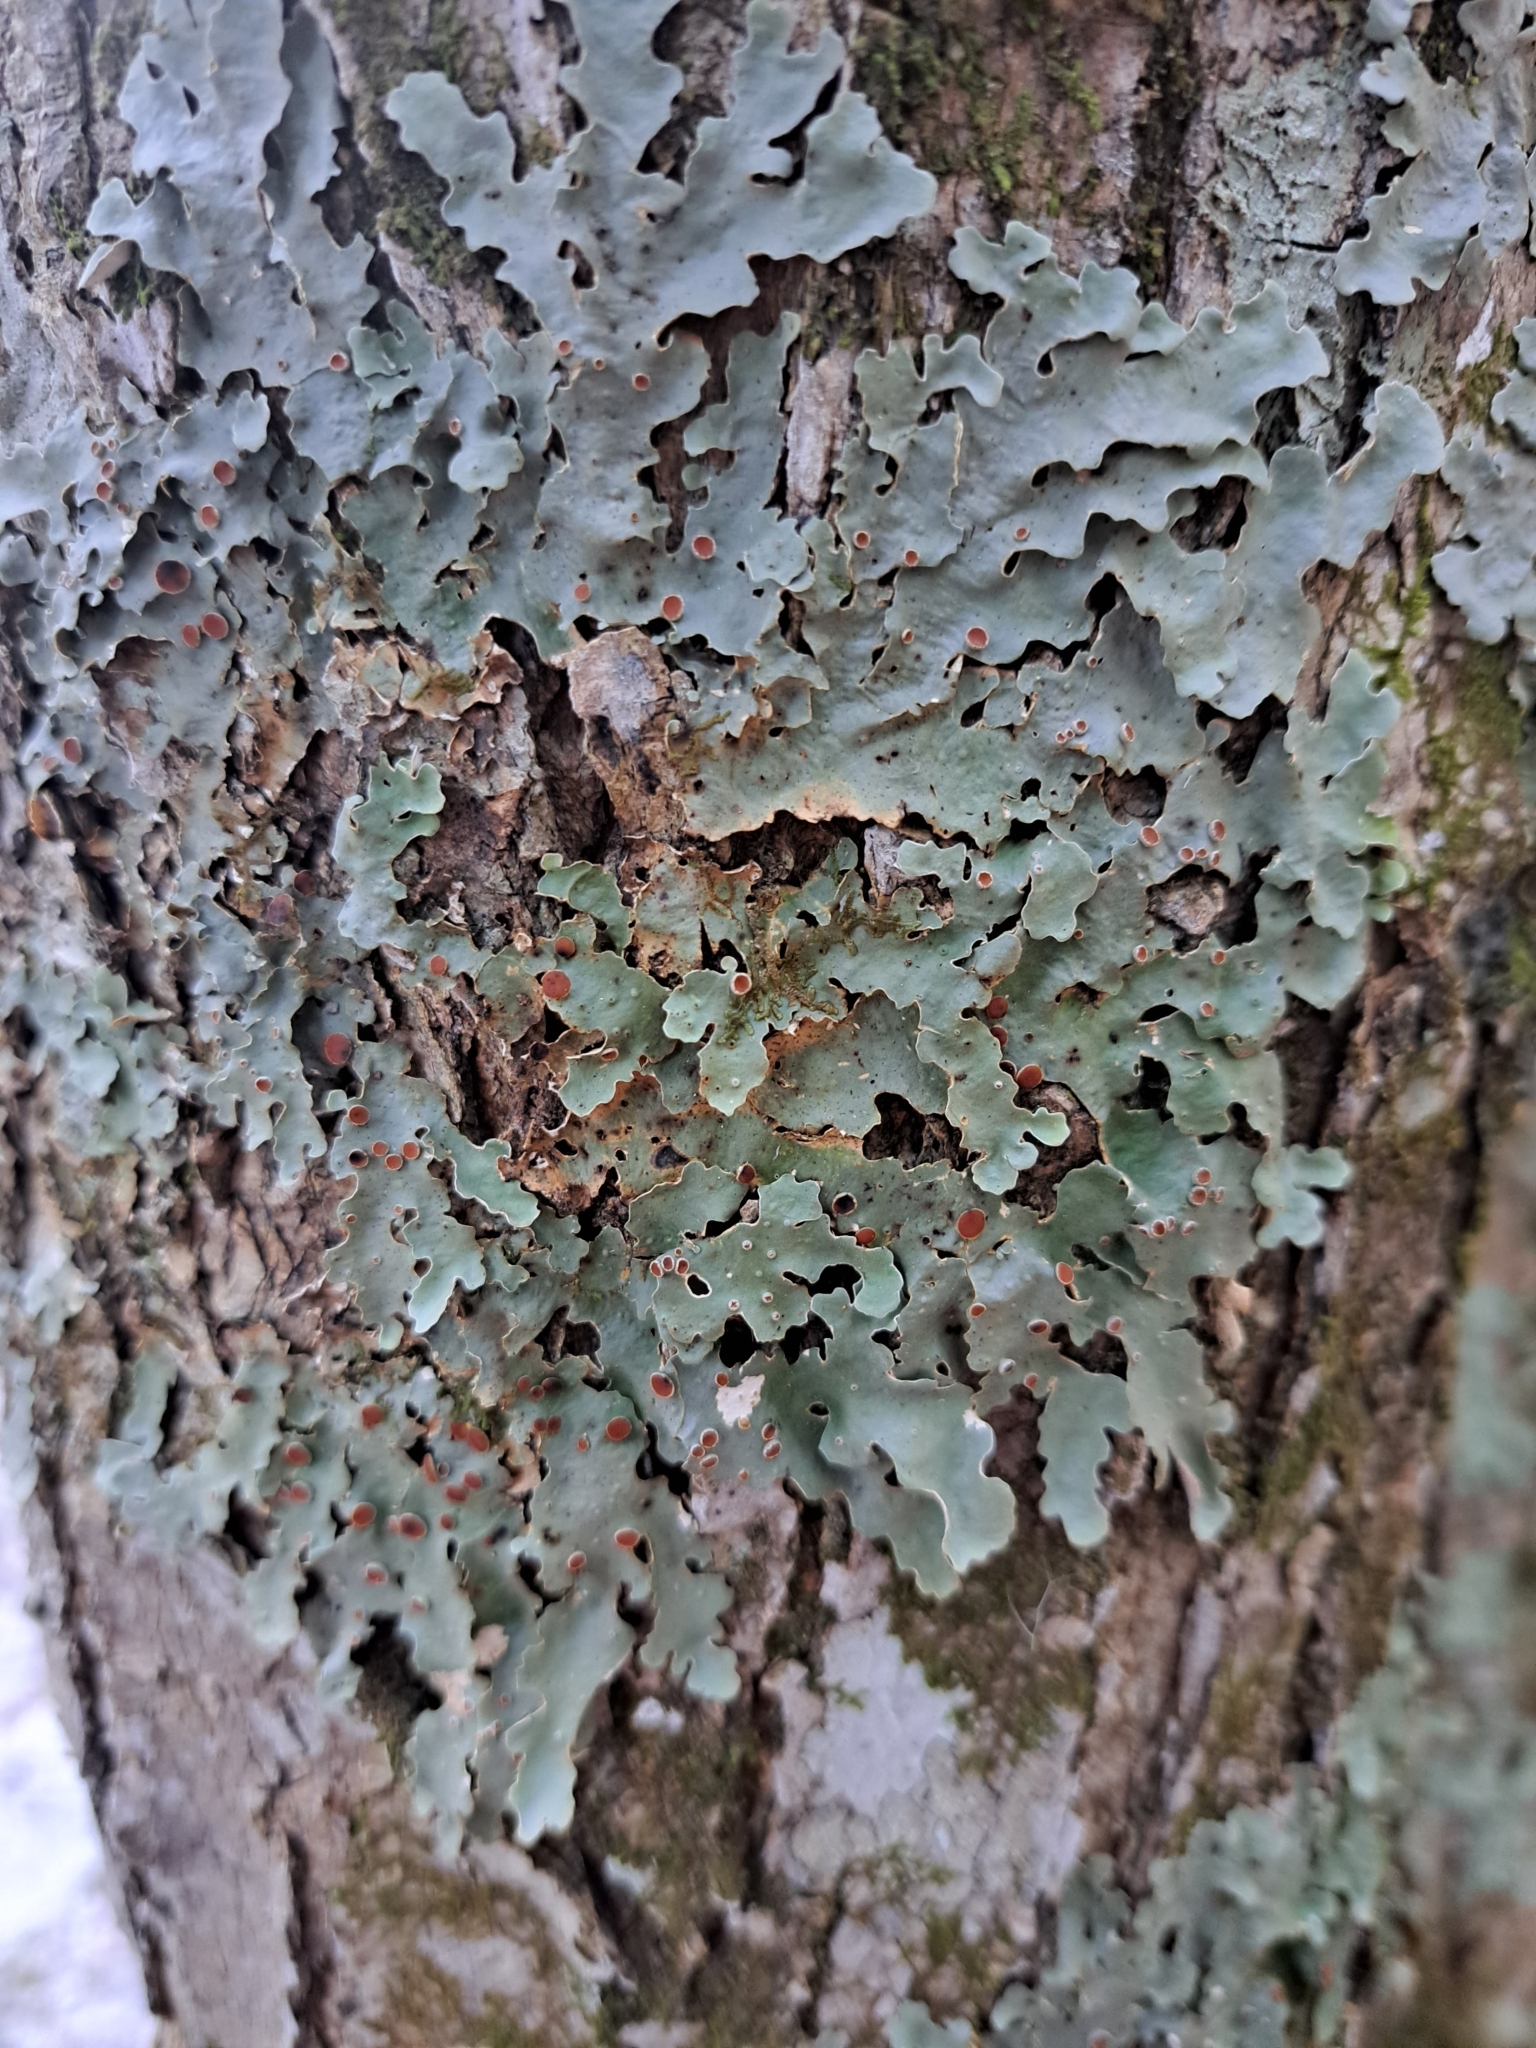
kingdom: Fungi
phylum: Ascomycota
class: Lecanoromycetes
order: Peltigerales
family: Lobariaceae
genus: Ricasolia
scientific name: Ricasolia quercizans
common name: Smooth lungwort
